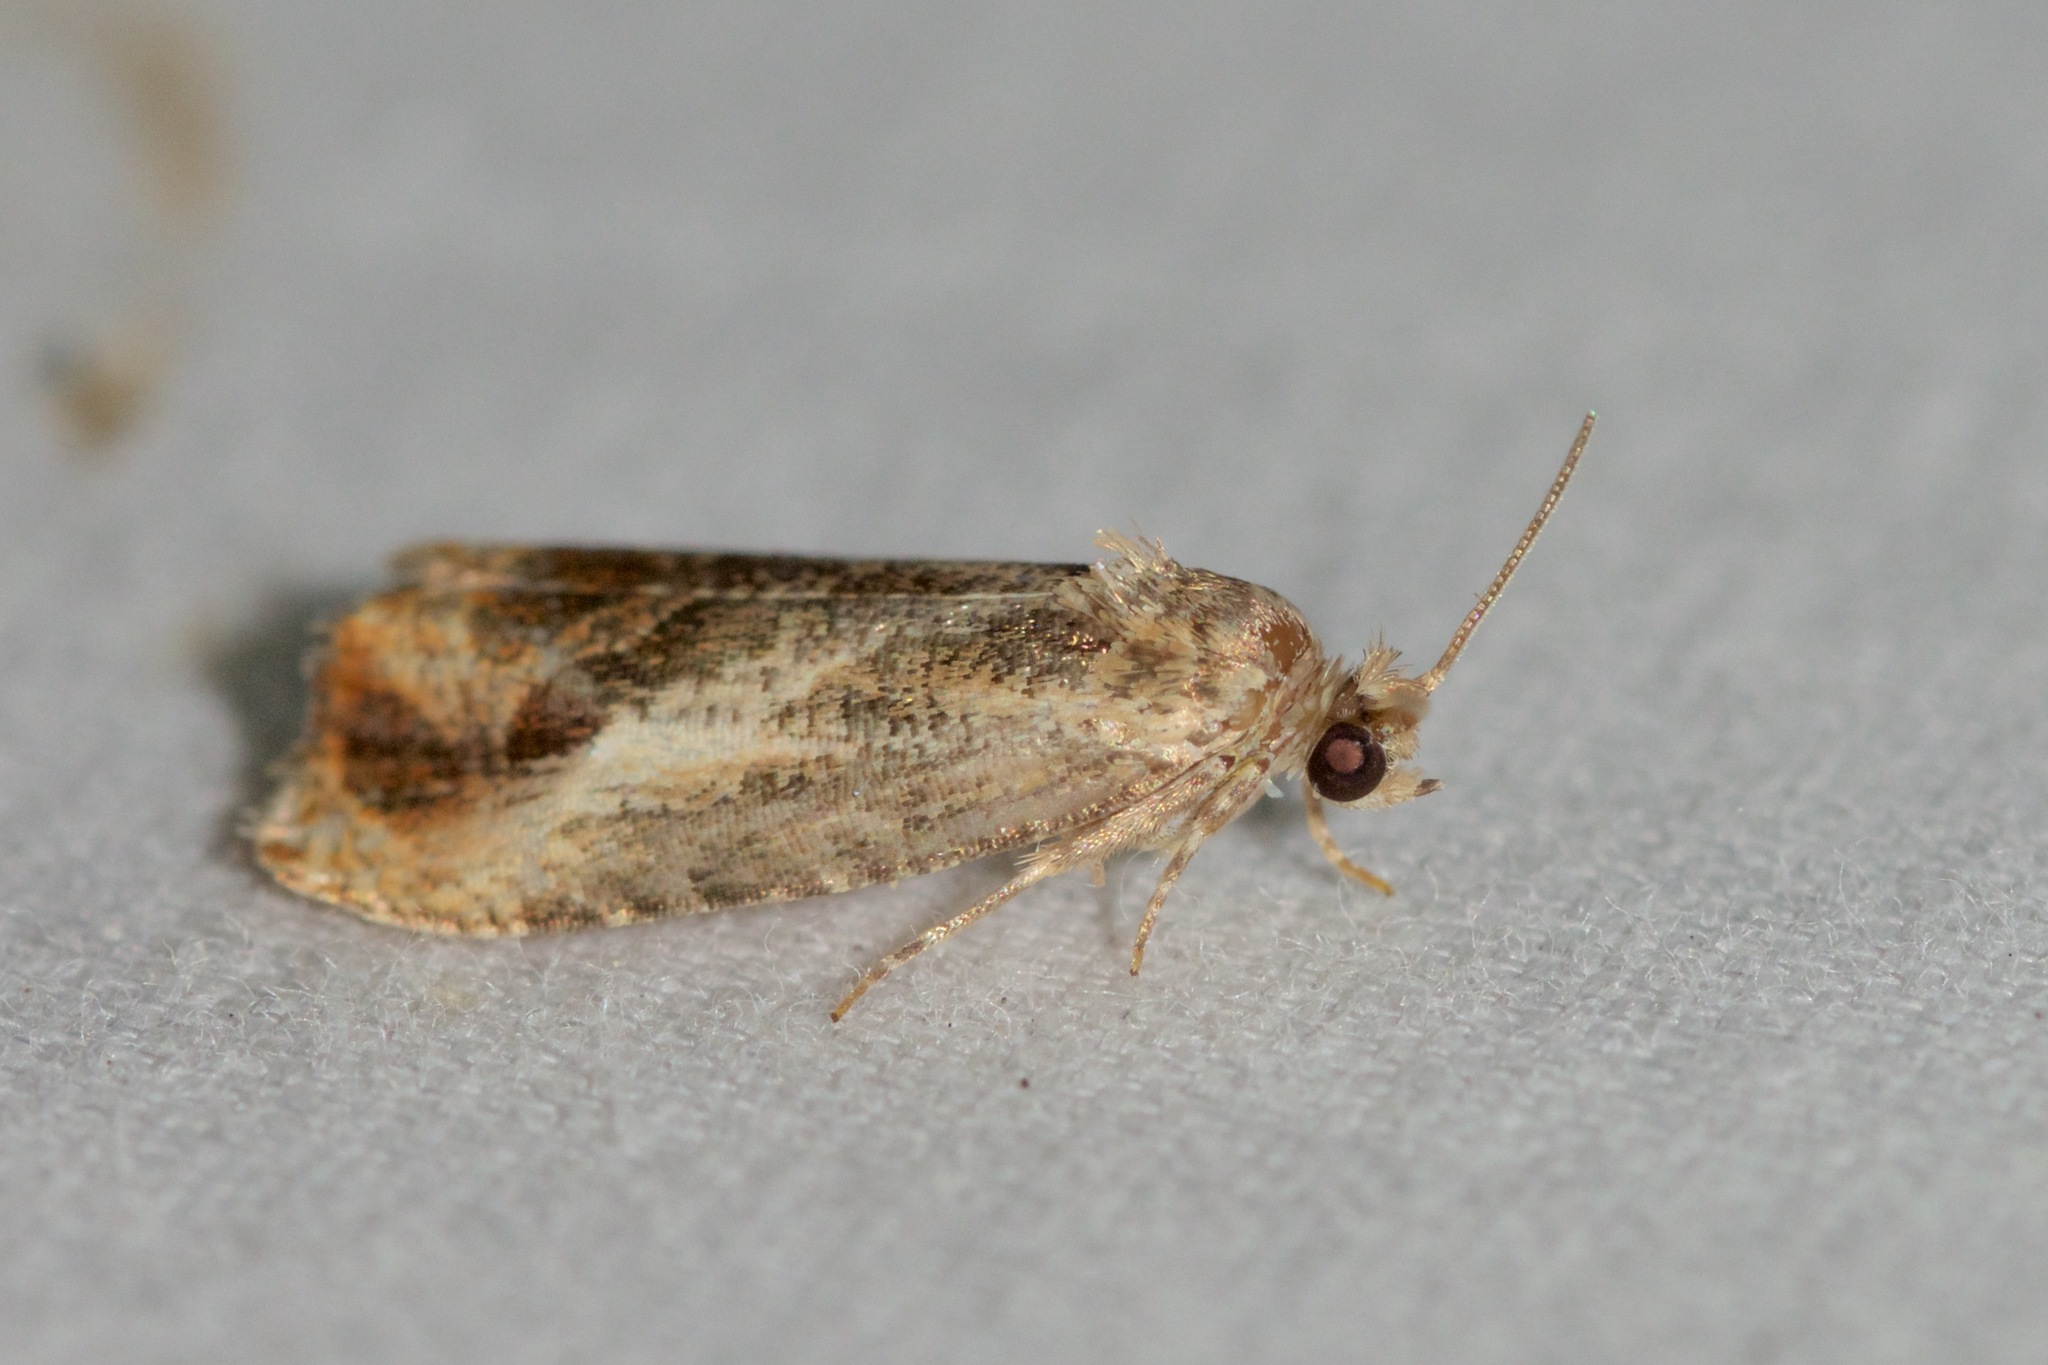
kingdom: Animalia
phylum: Arthropoda
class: Insecta
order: Lepidoptera
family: Tortricidae
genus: Olethreutes
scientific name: Olethreutes hamameliana
